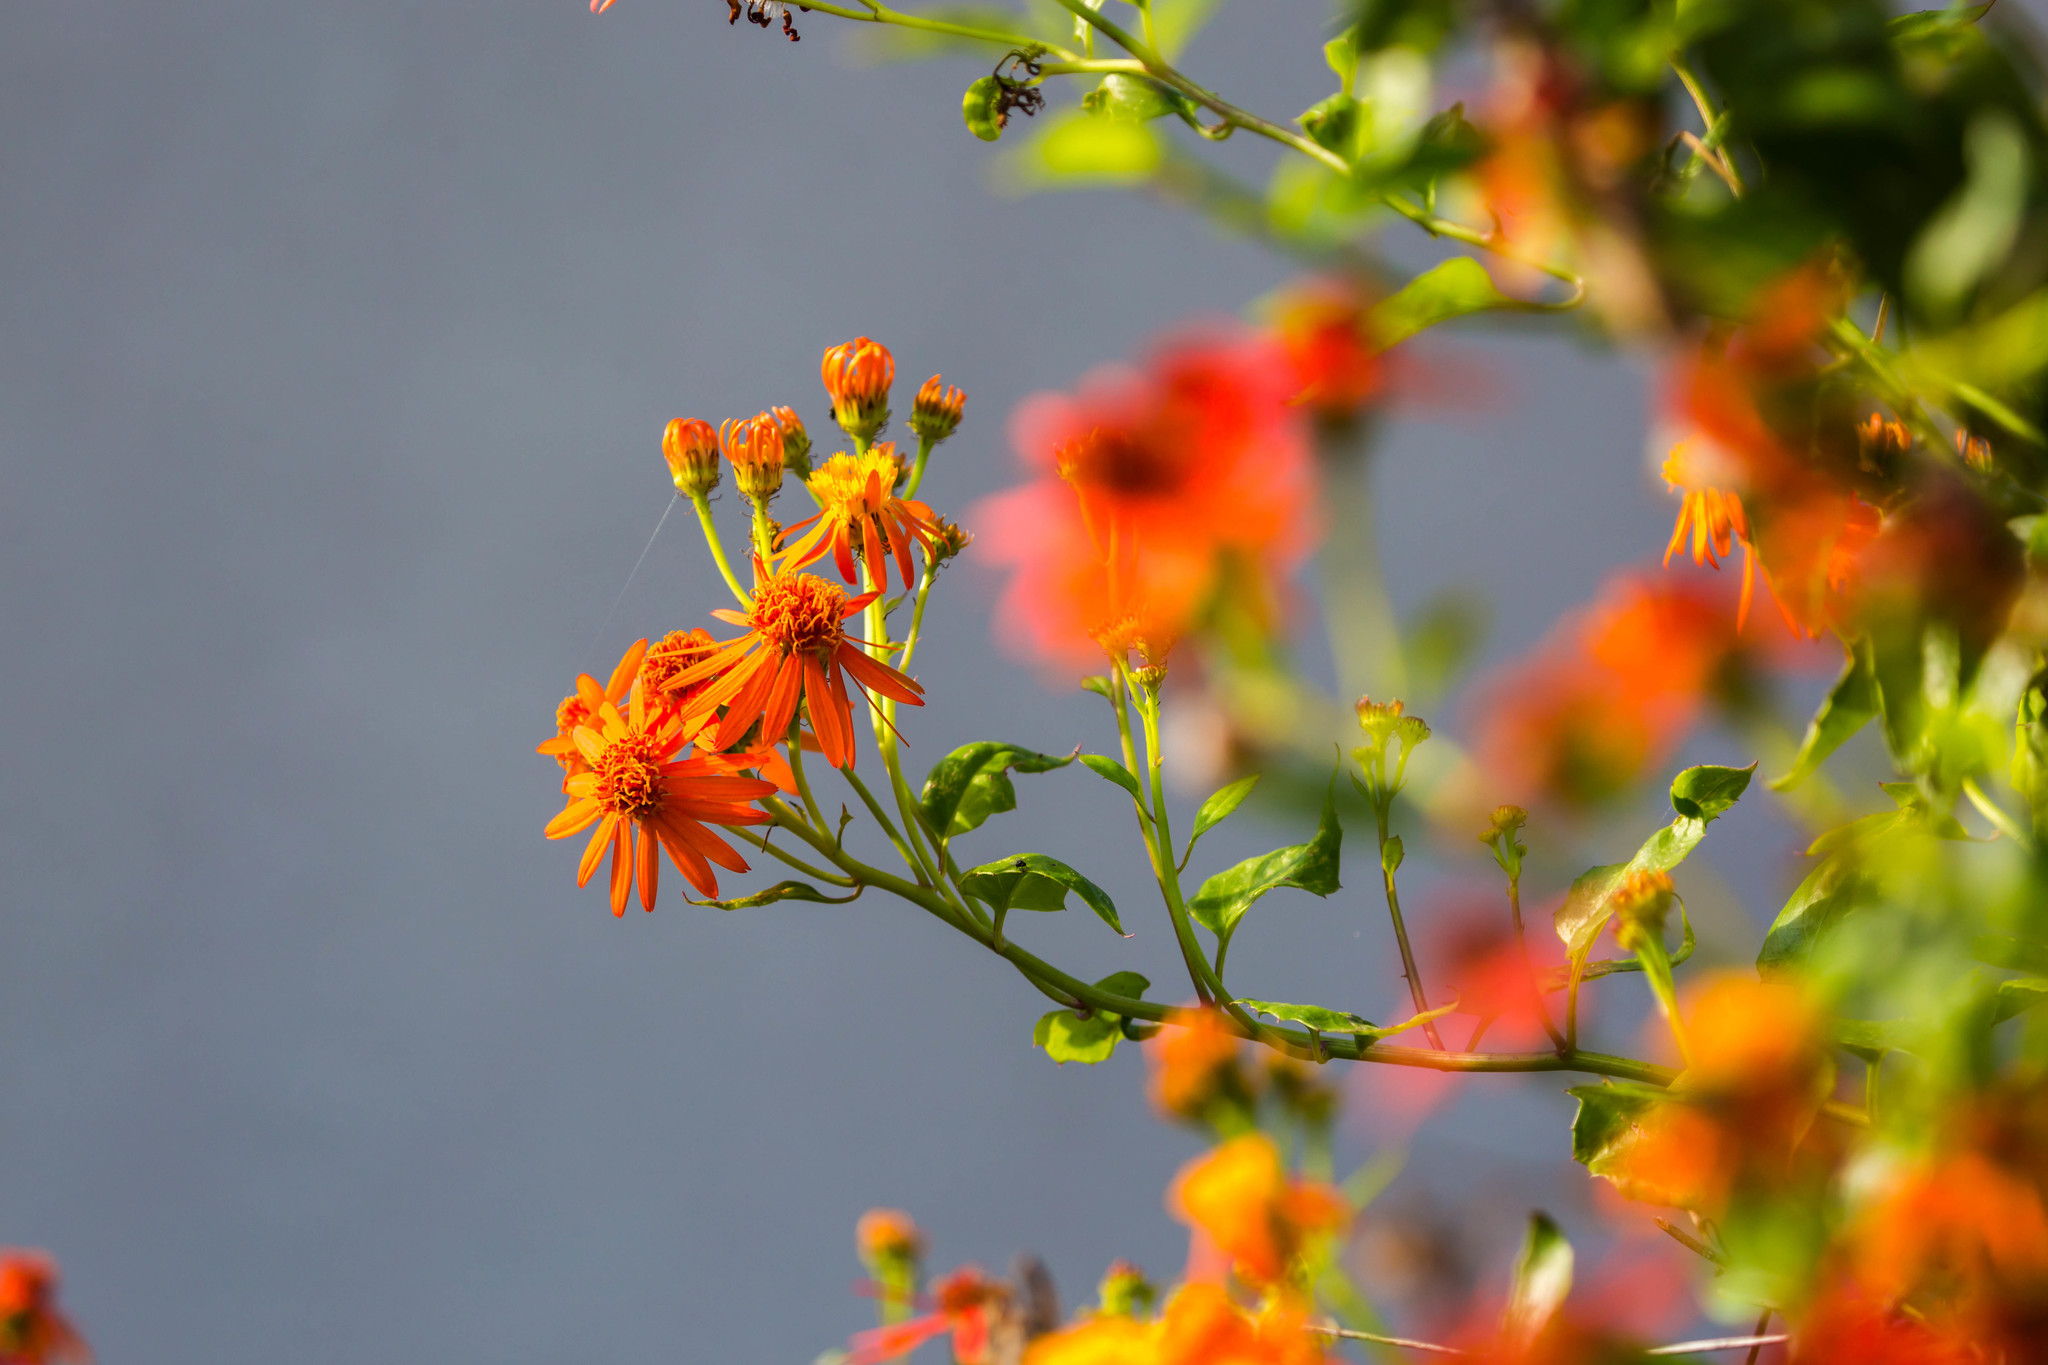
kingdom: Plantae
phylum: Tracheophyta
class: Magnoliopsida
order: Asterales
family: Asteraceae
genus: Pseudogynoxys
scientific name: Pseudogynoxys chenopodioides
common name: Mexican flamevine
